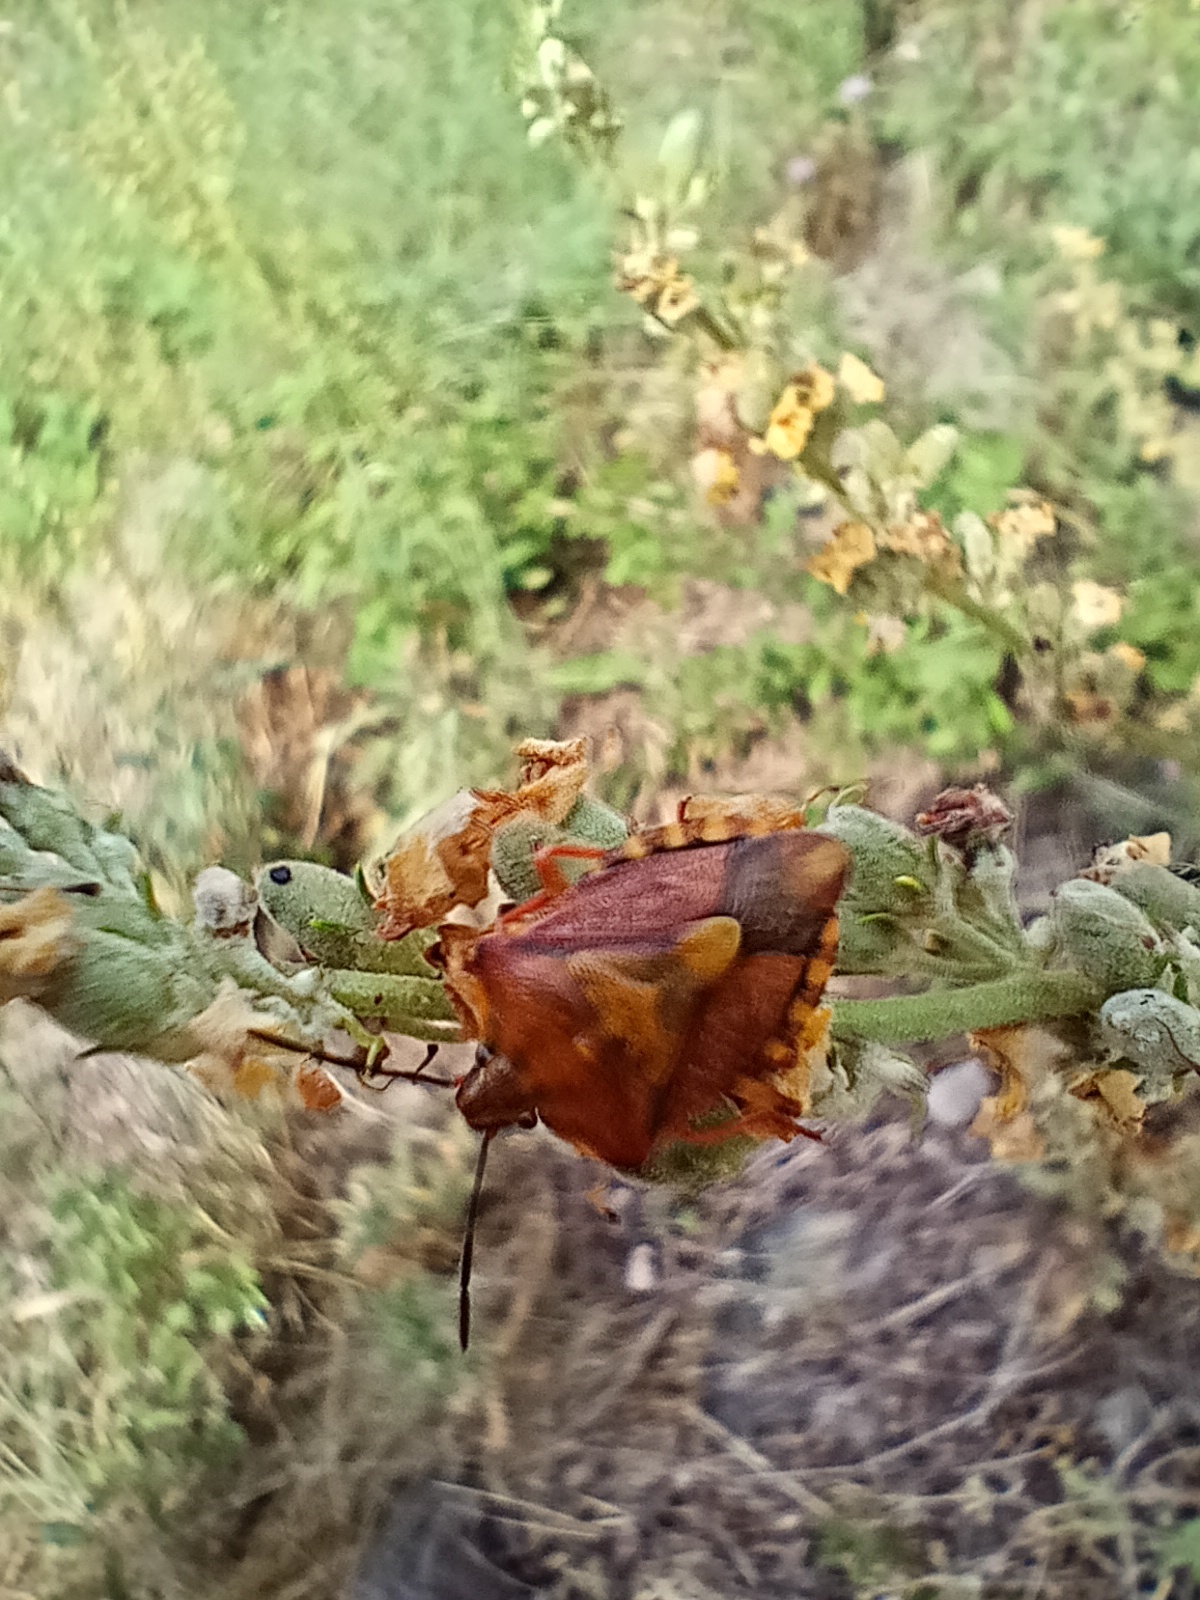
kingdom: Animalia
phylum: Arthropoda
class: Insecta
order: Hemiptera
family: Pentatomidae
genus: Carpocoris
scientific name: Carpocoris purpureipennis
